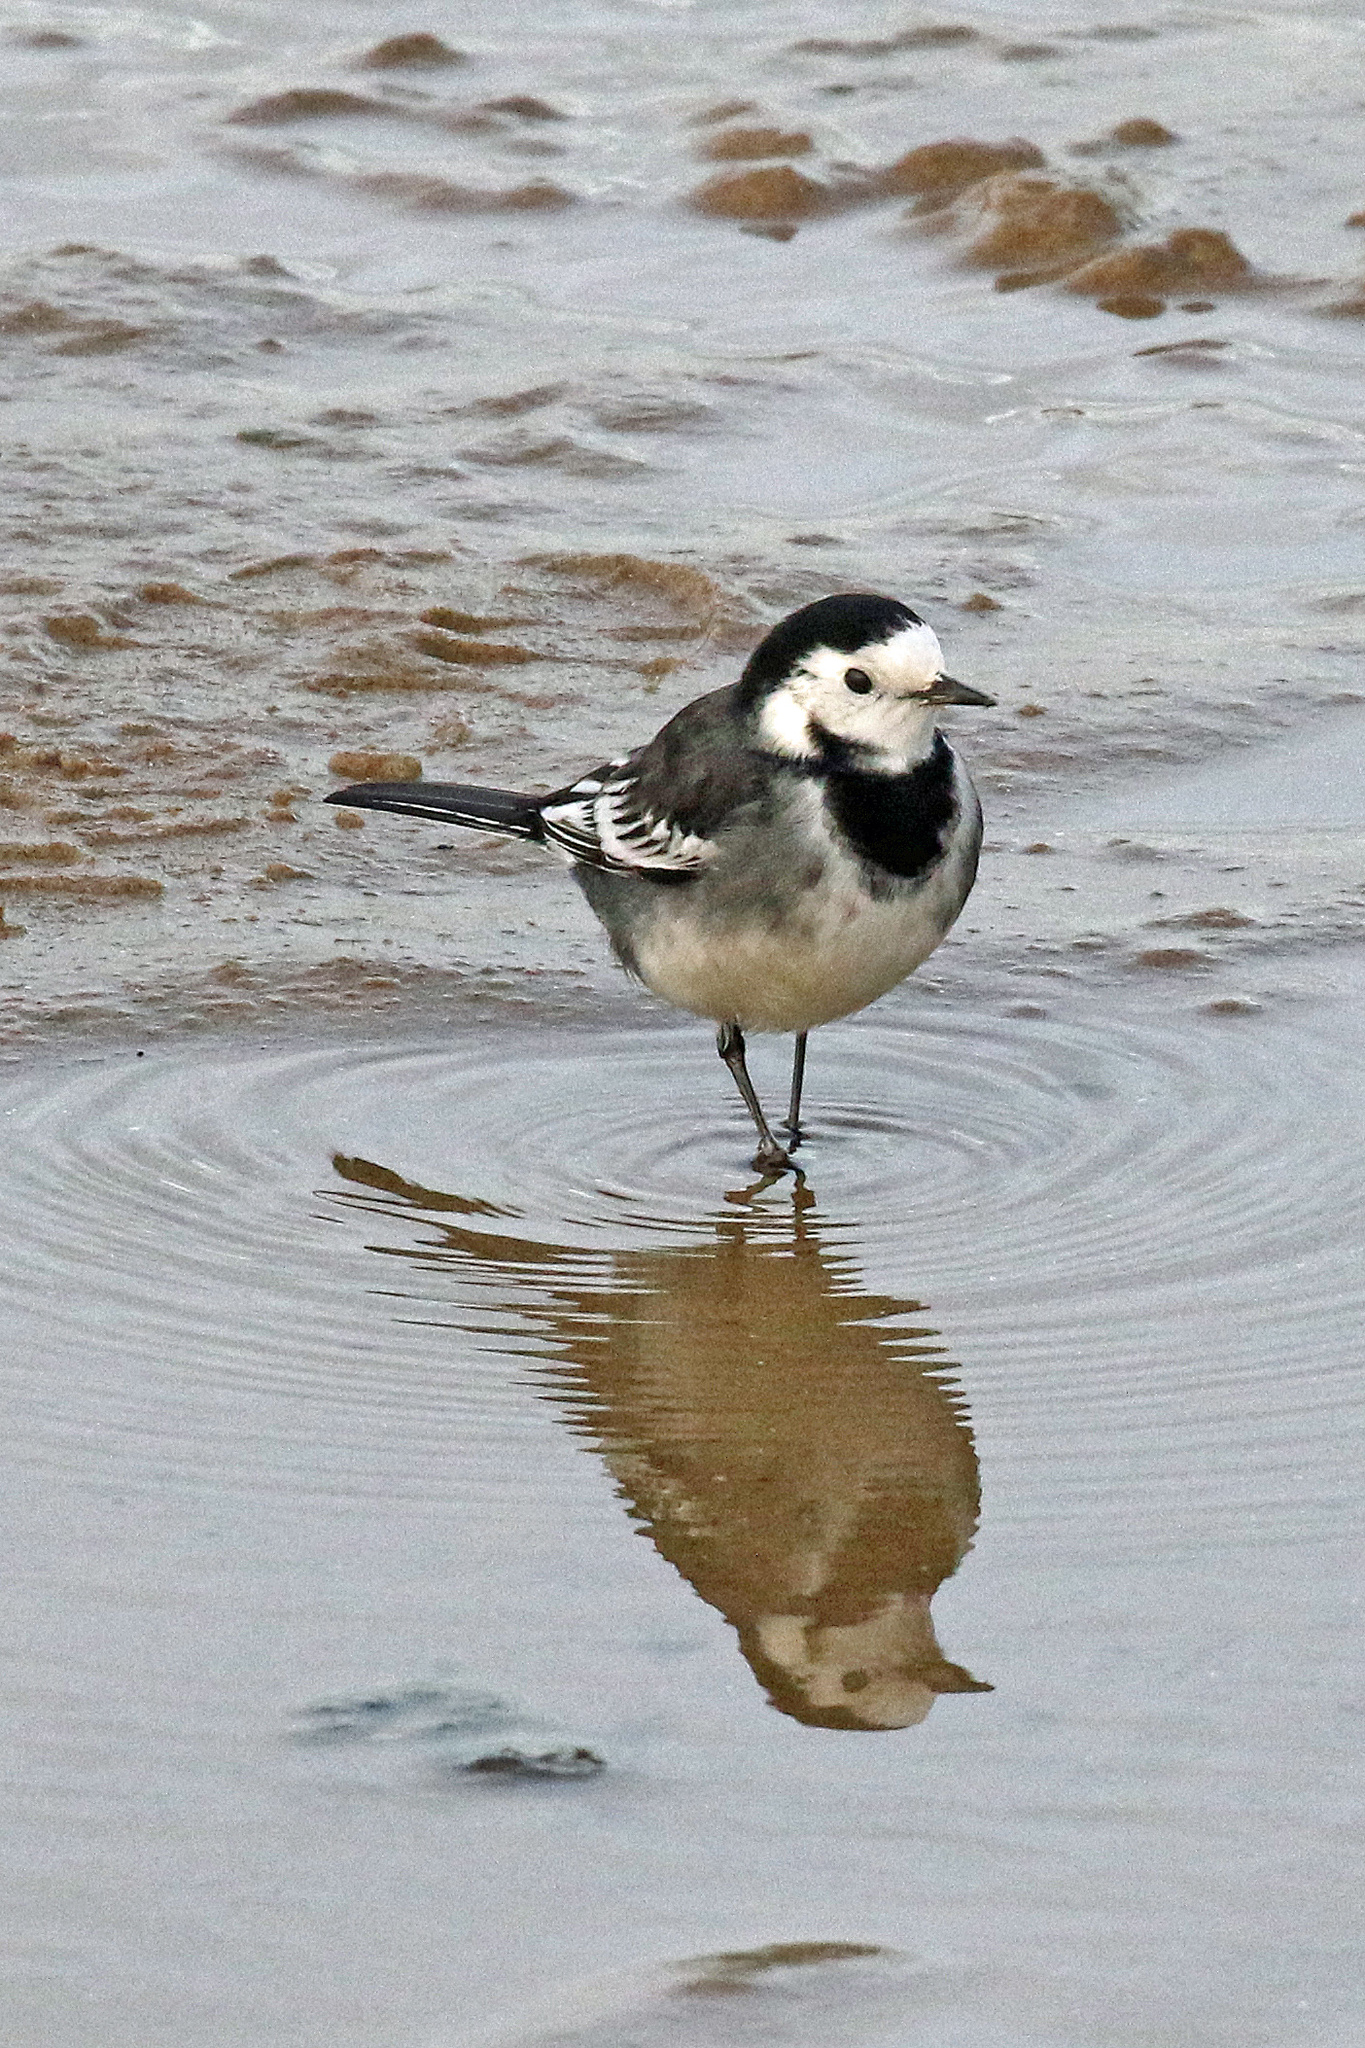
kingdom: Animalia
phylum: Chordata
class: Aves
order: Passeriformes
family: Motacillidae
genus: Motacilla
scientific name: Motacilla alba
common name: White wagtail
